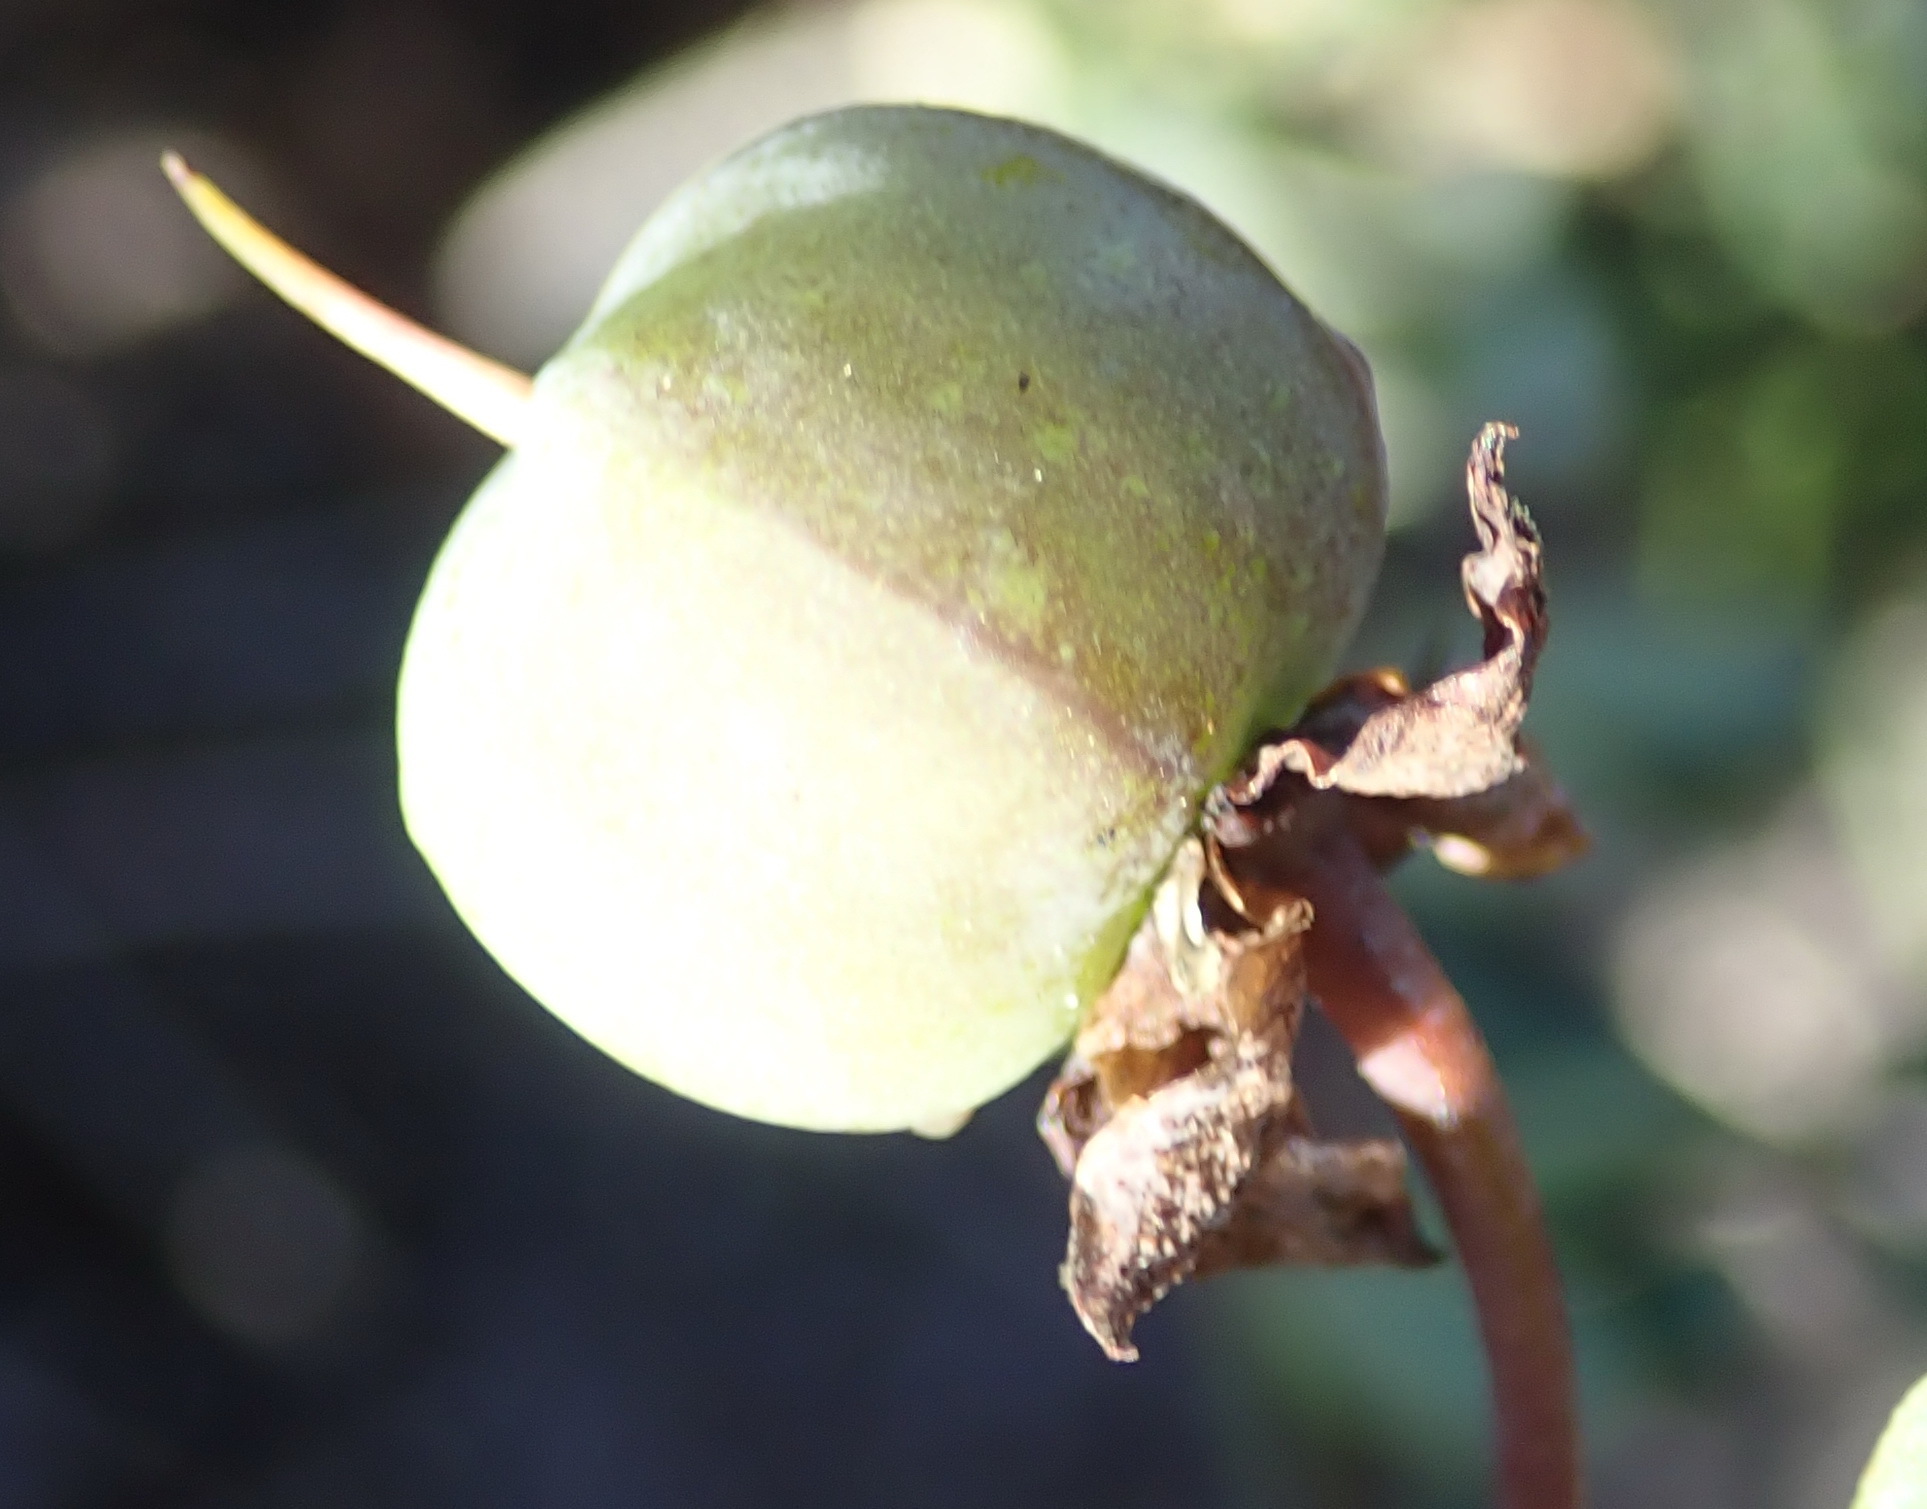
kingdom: Plantae
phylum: Tracheophyta
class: Magnoliopsida
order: Zygophyllales
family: Zygophyllaceae
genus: Roepera
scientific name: Roepera flexuosa
